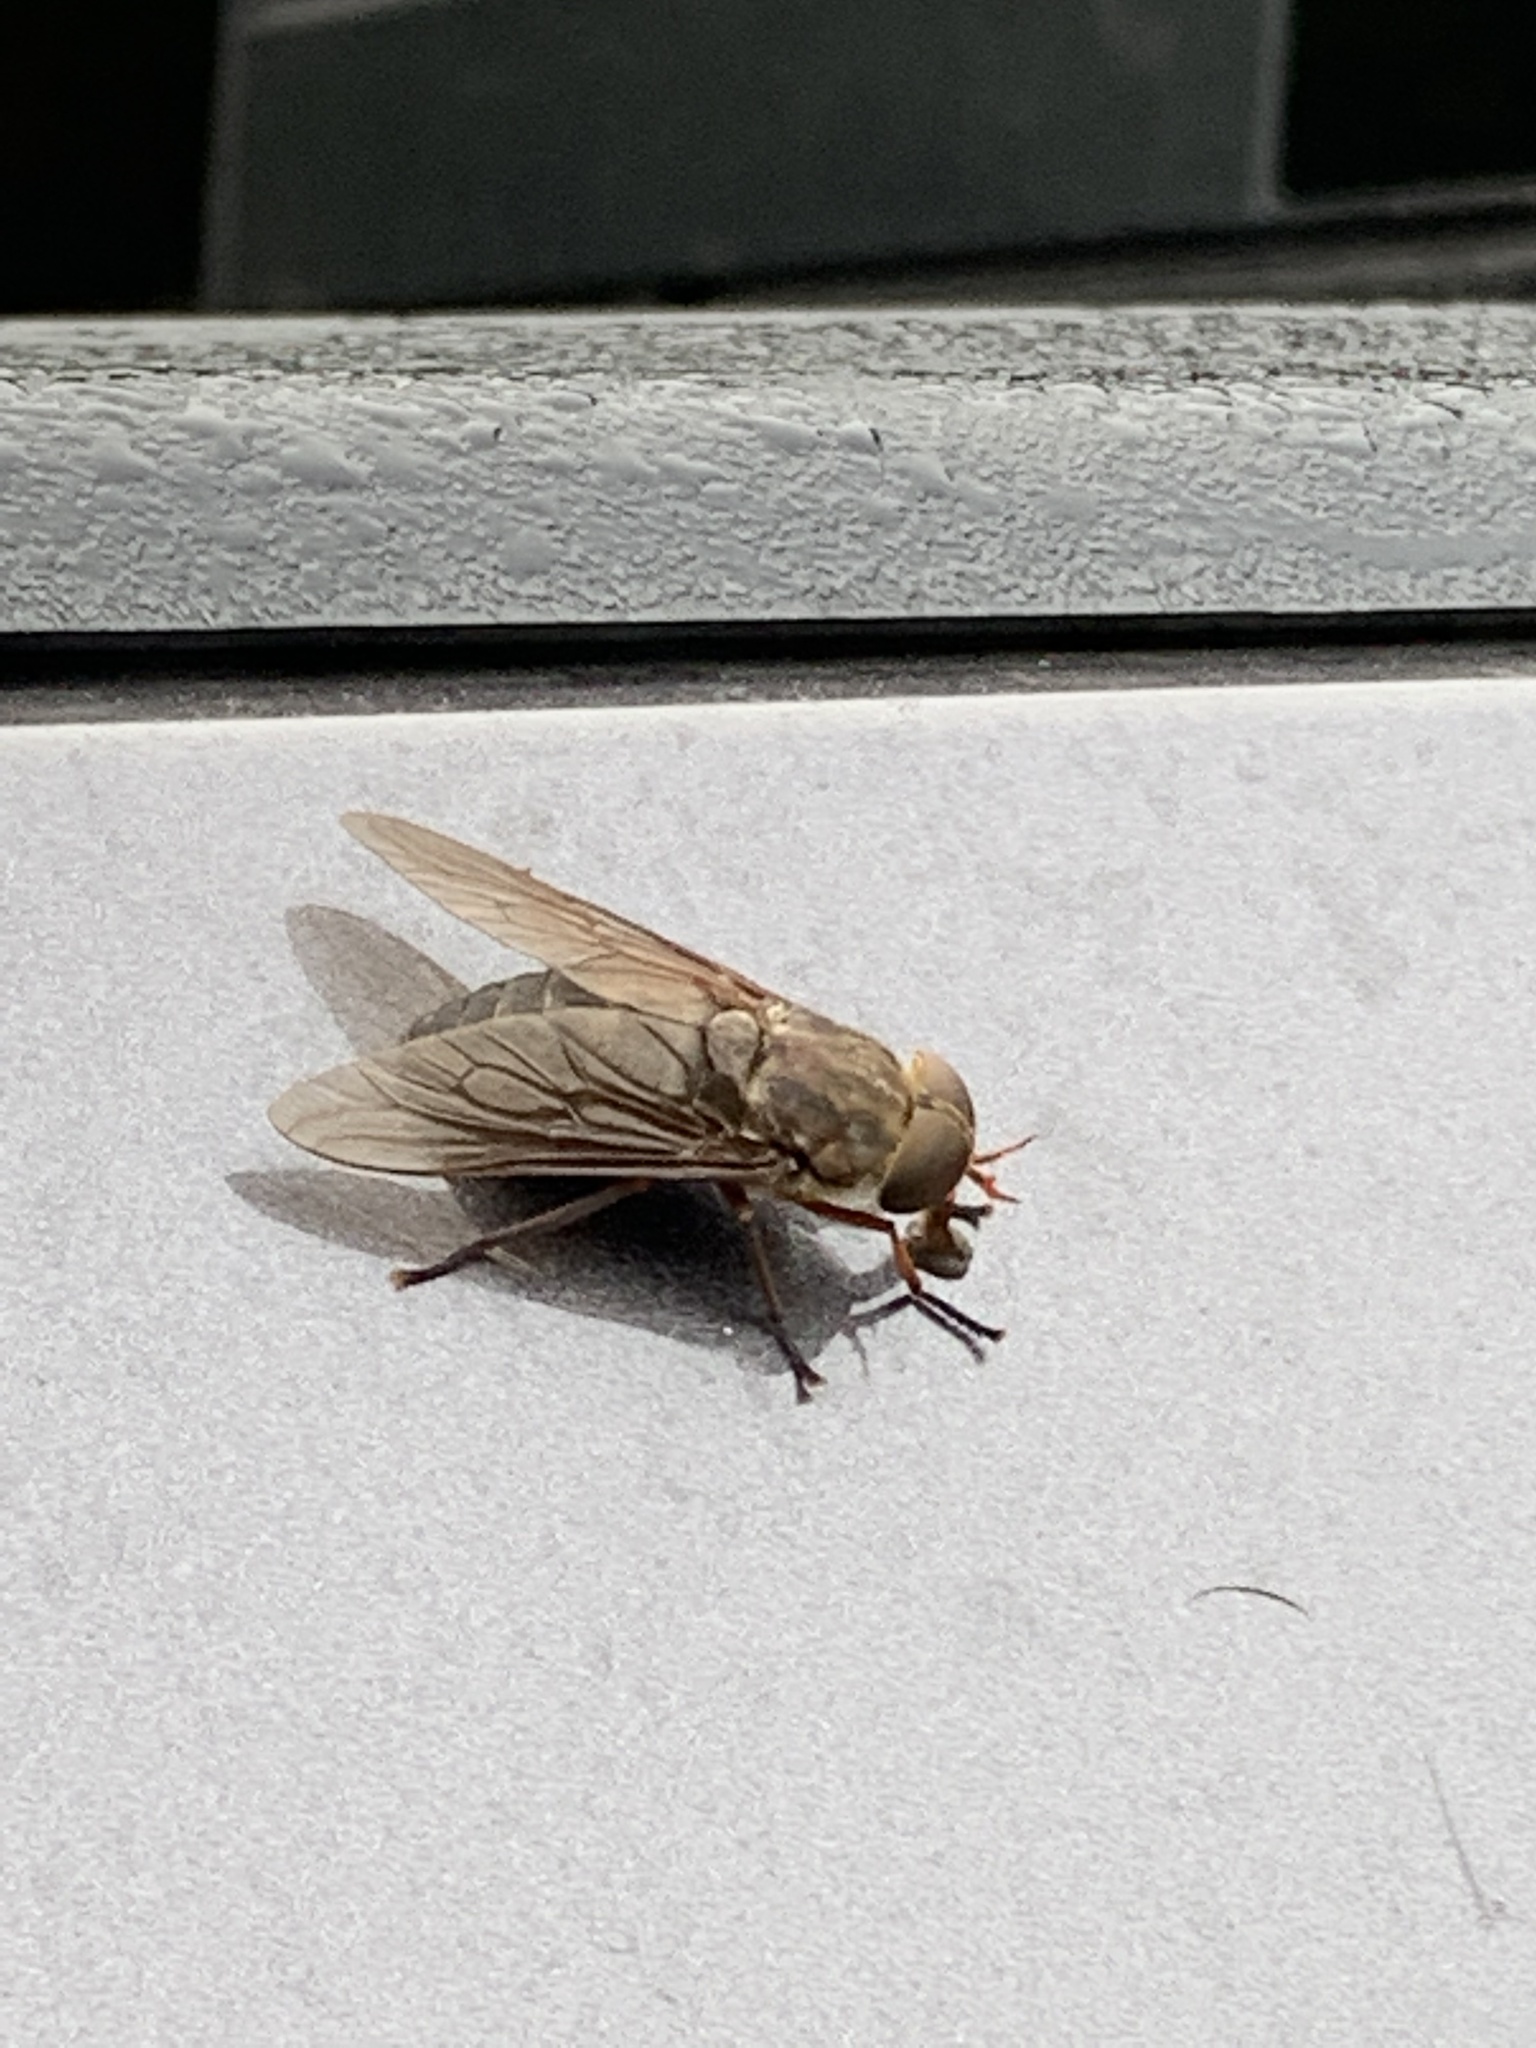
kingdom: Animalia
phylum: Arthropoda
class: Insecta
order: Diptera
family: Tabanidae
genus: Tabanus
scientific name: Tabanus calens
